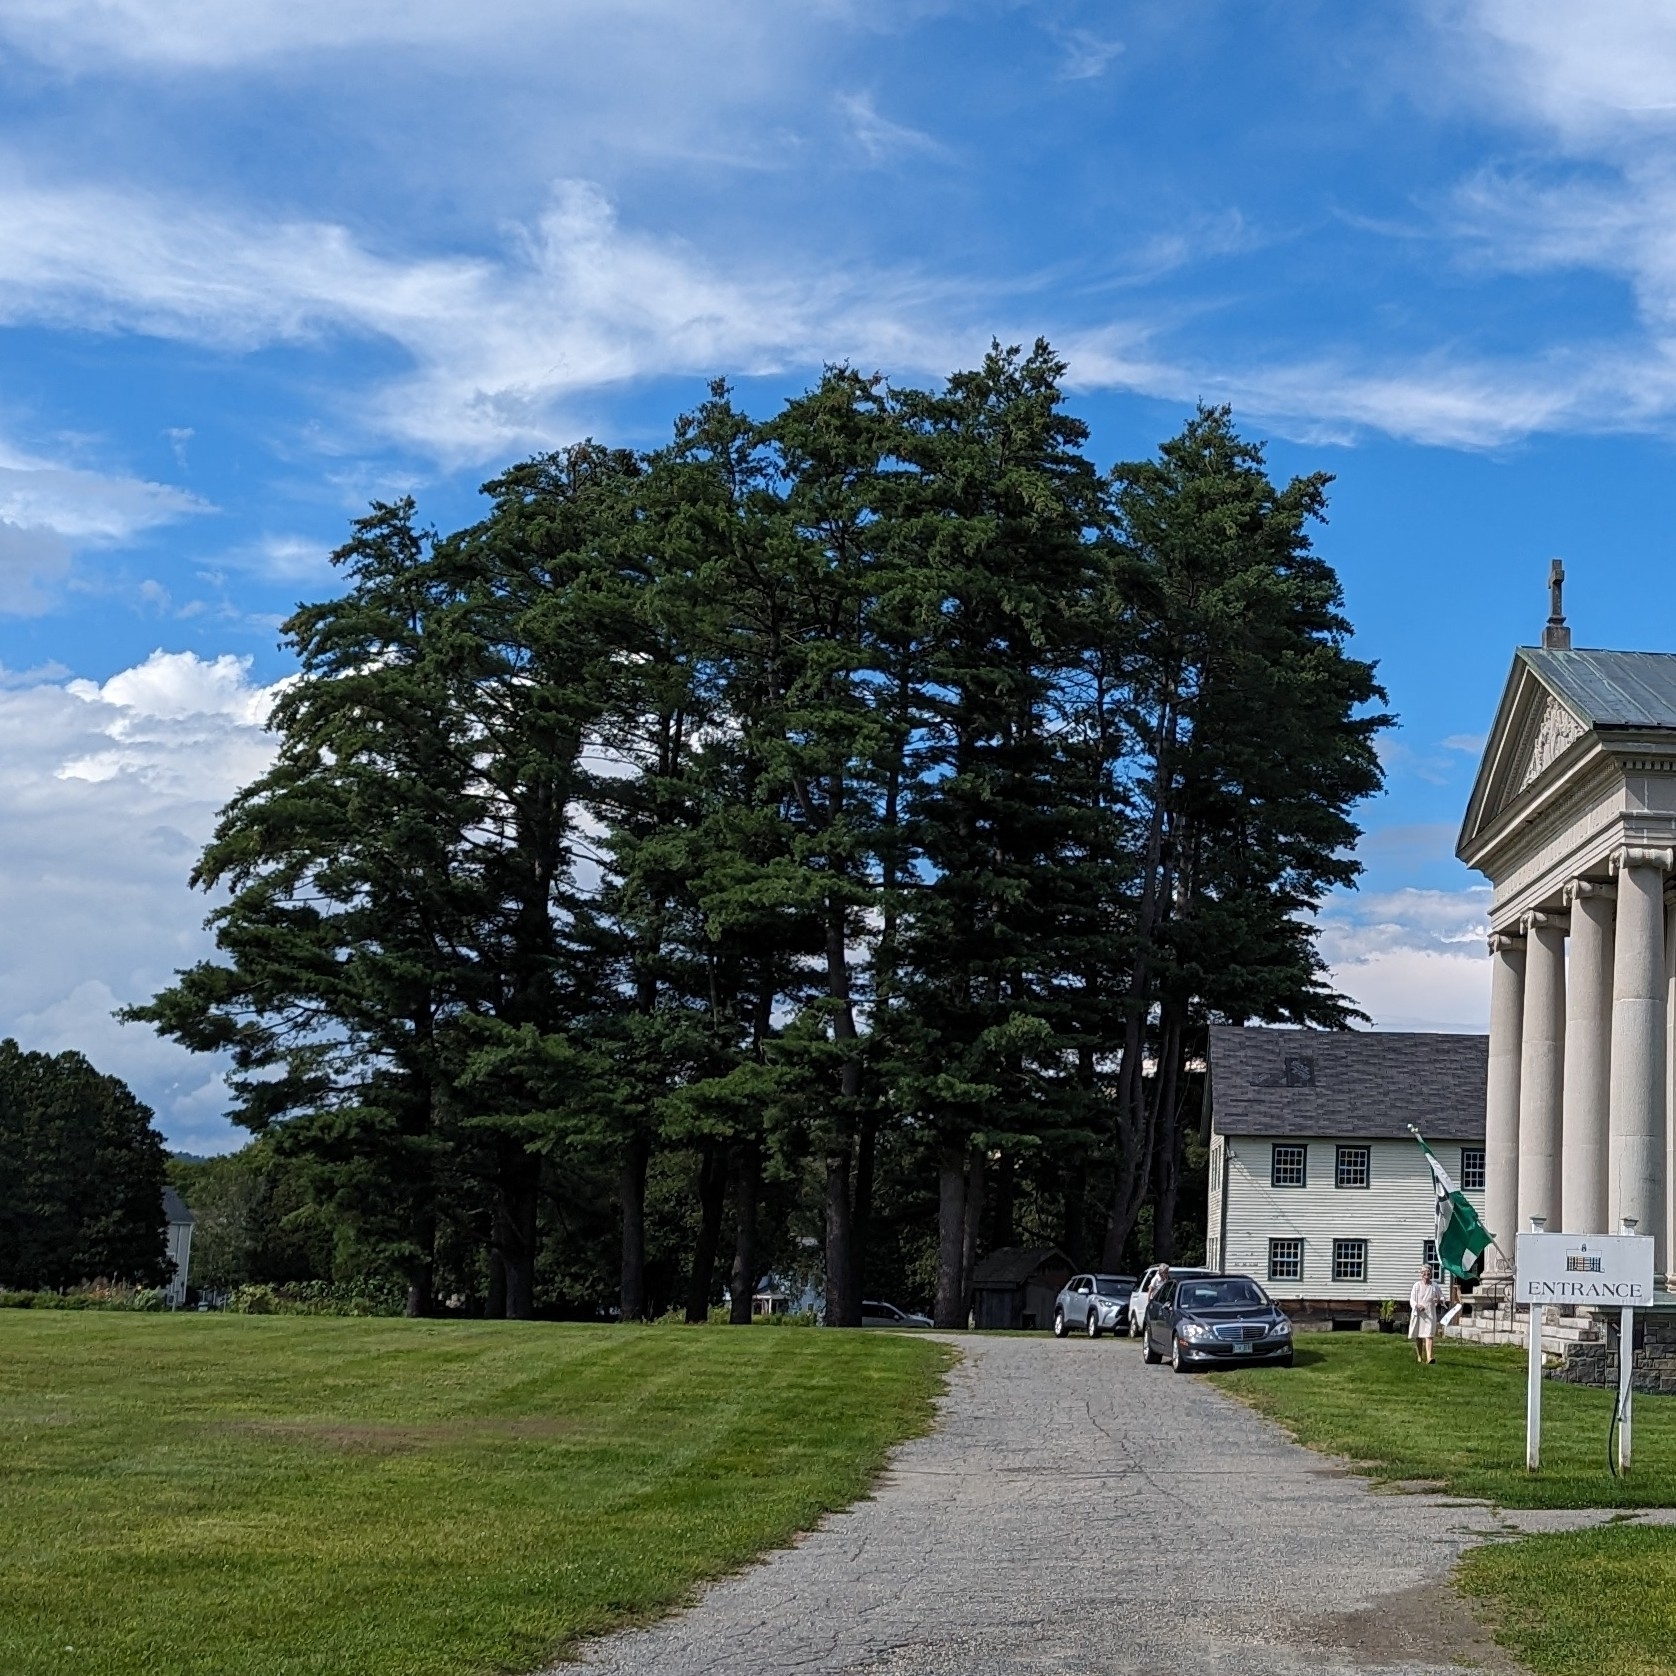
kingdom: Plantae
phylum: Tracheophyta
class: Pinopsida
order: Pinales
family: Pinaceae
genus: Pinus
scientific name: Pinus strobus
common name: Weymouth pine
